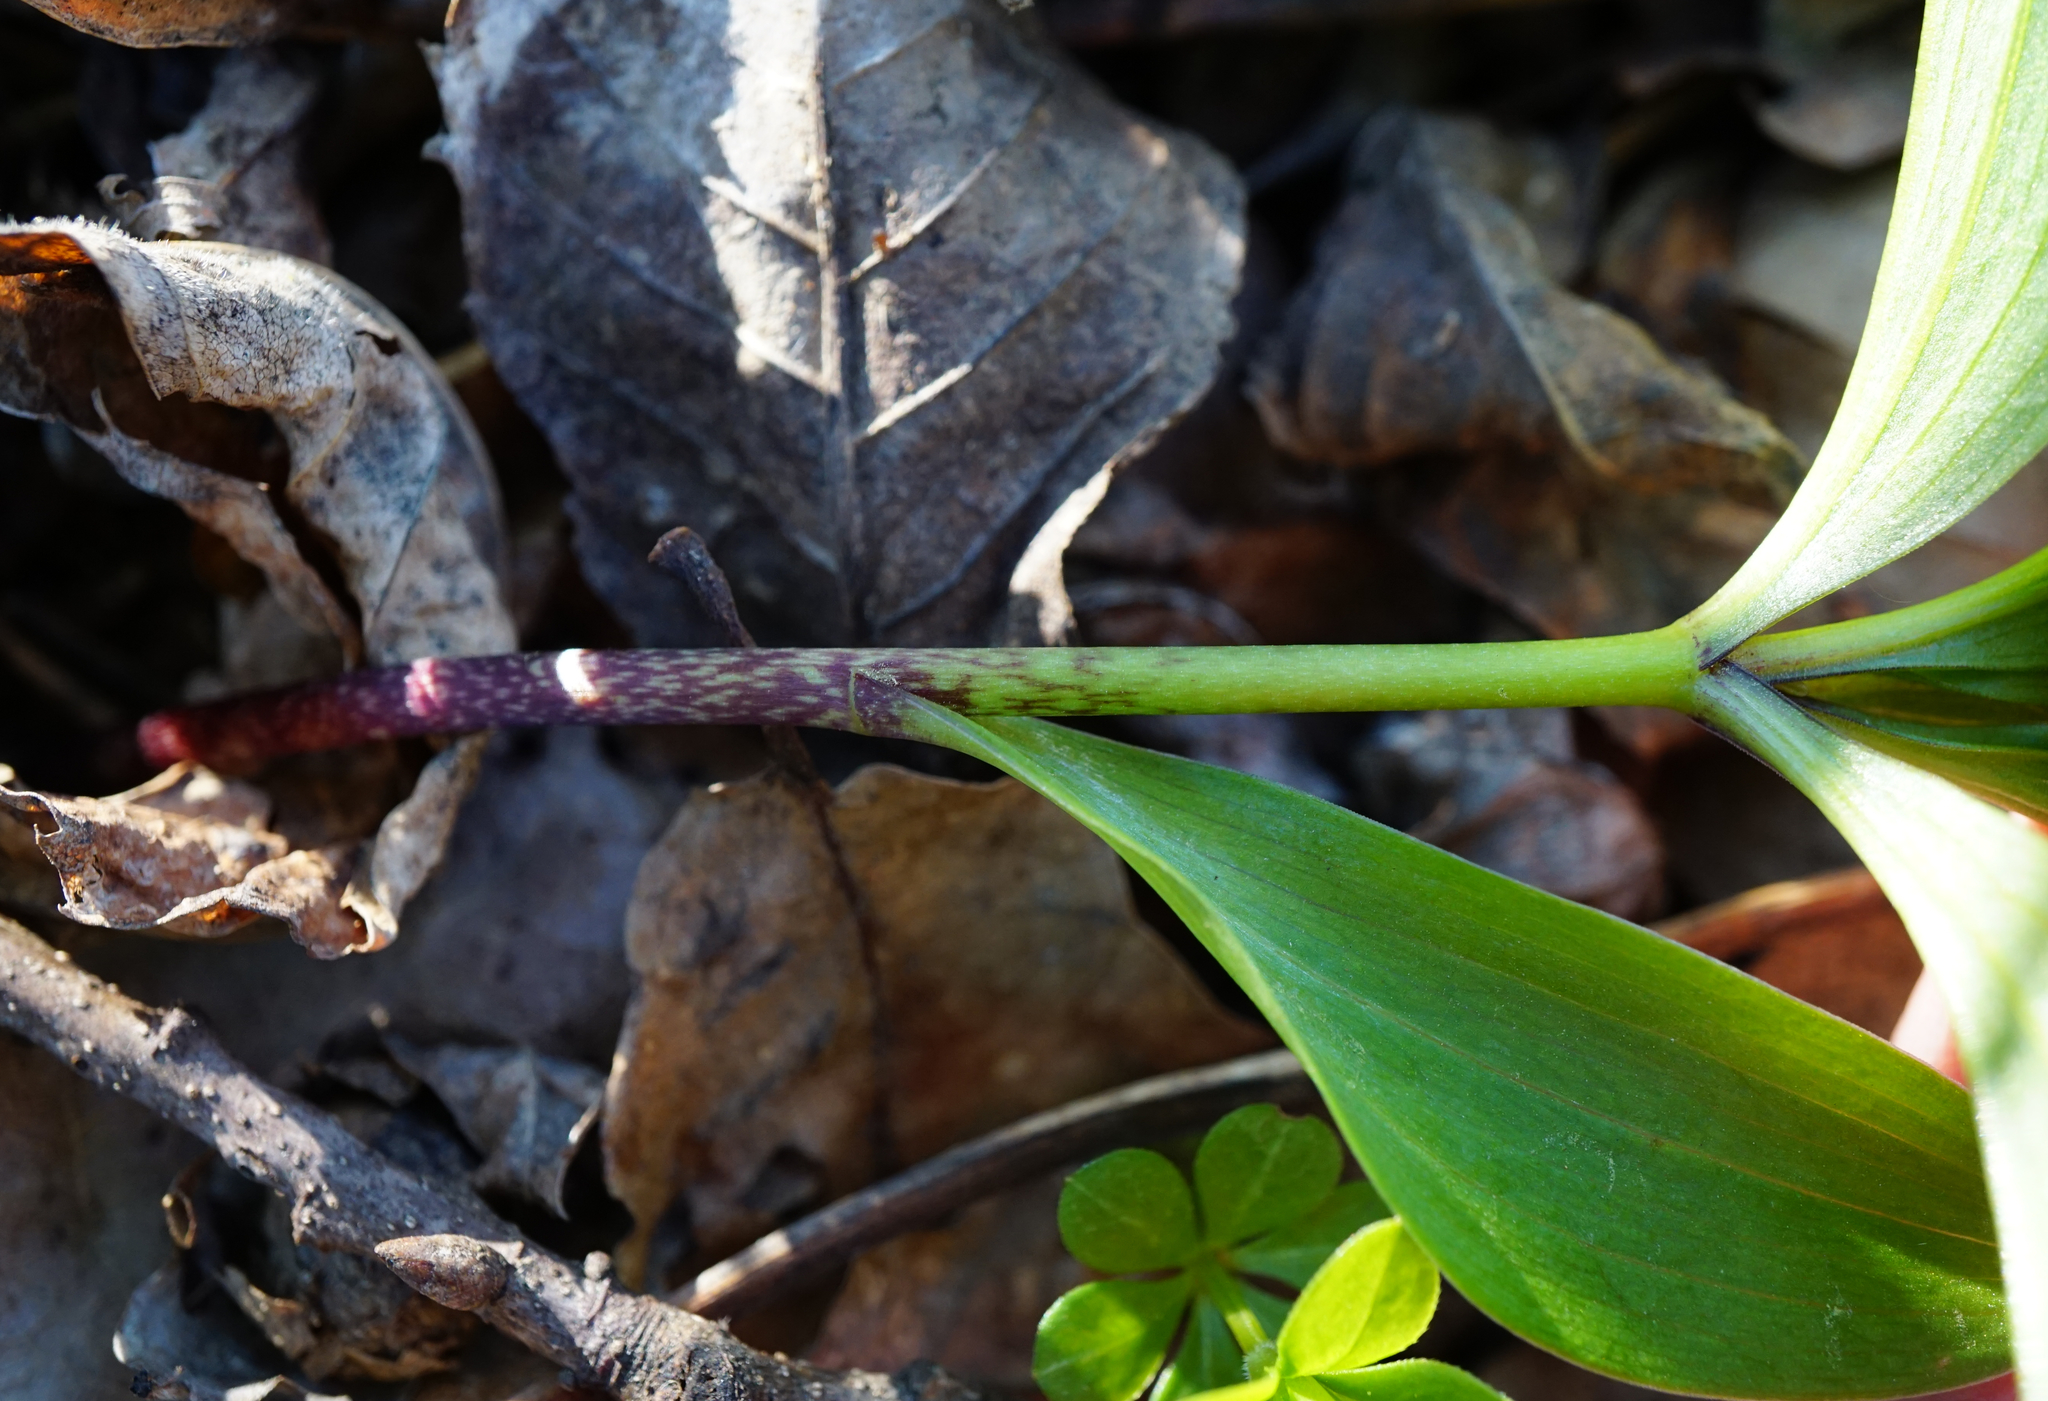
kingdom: Plantae
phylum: Tracheophyta
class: Liliopsida
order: Liliales
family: Liliaceae
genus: Lilium
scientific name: Lilium martagon
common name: Martagon lily
